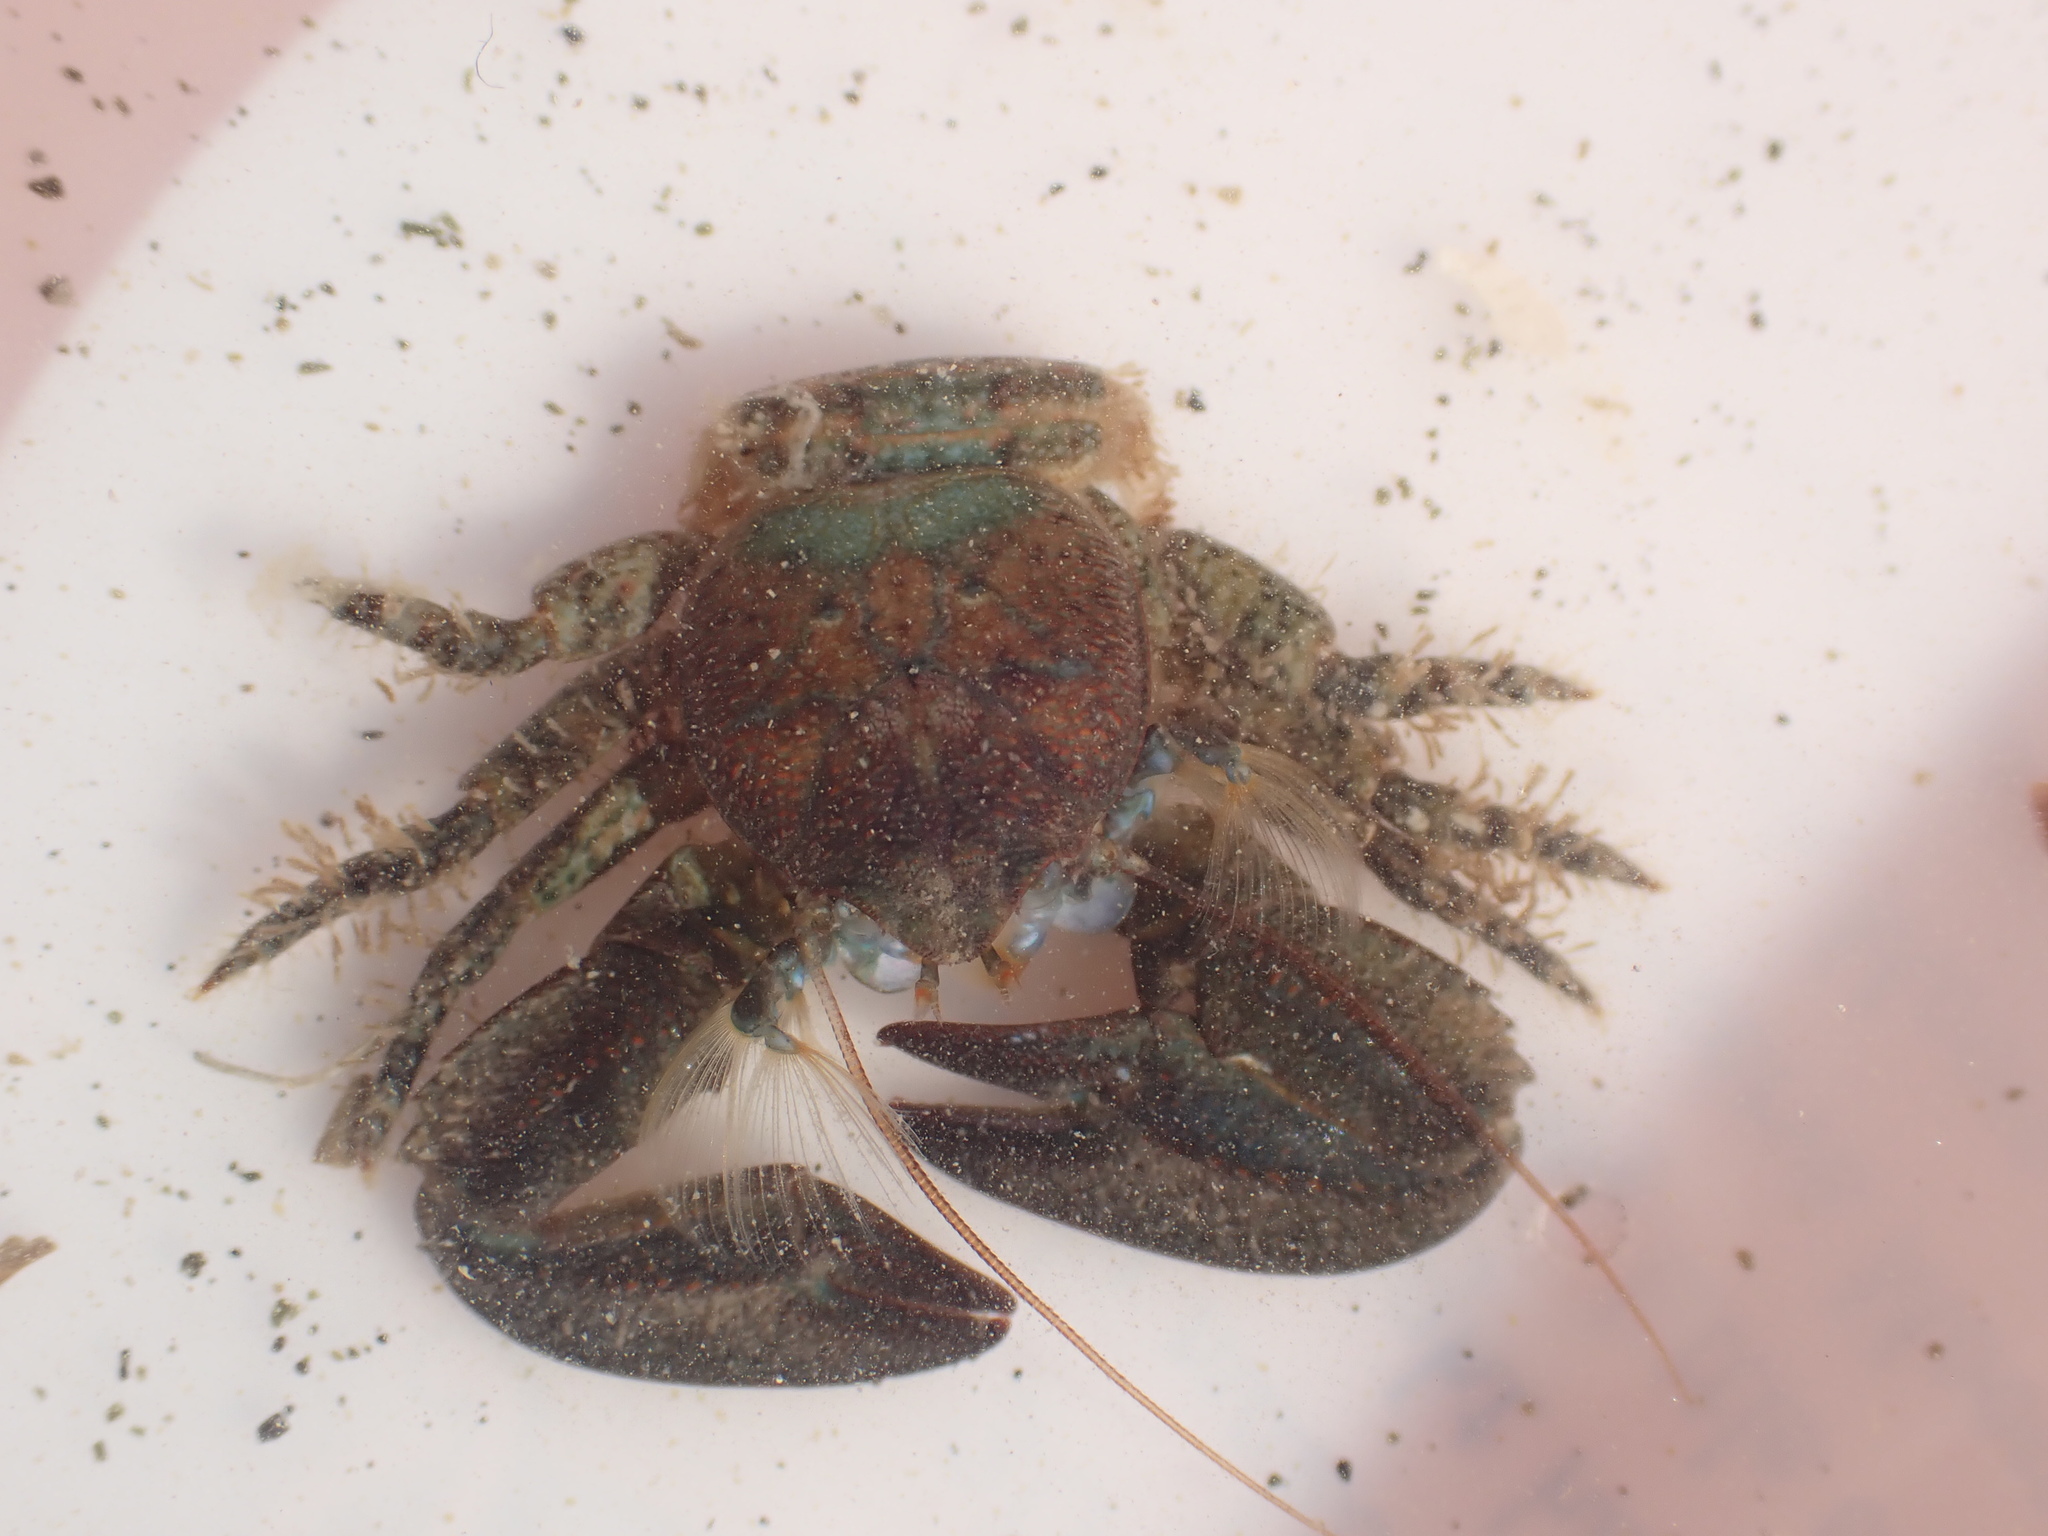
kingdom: Animalia
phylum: Arthropoda
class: Malacostraca
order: Decapoda
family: Porcellanidae
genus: Petrolisthes
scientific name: Petrolisthes elongatus
